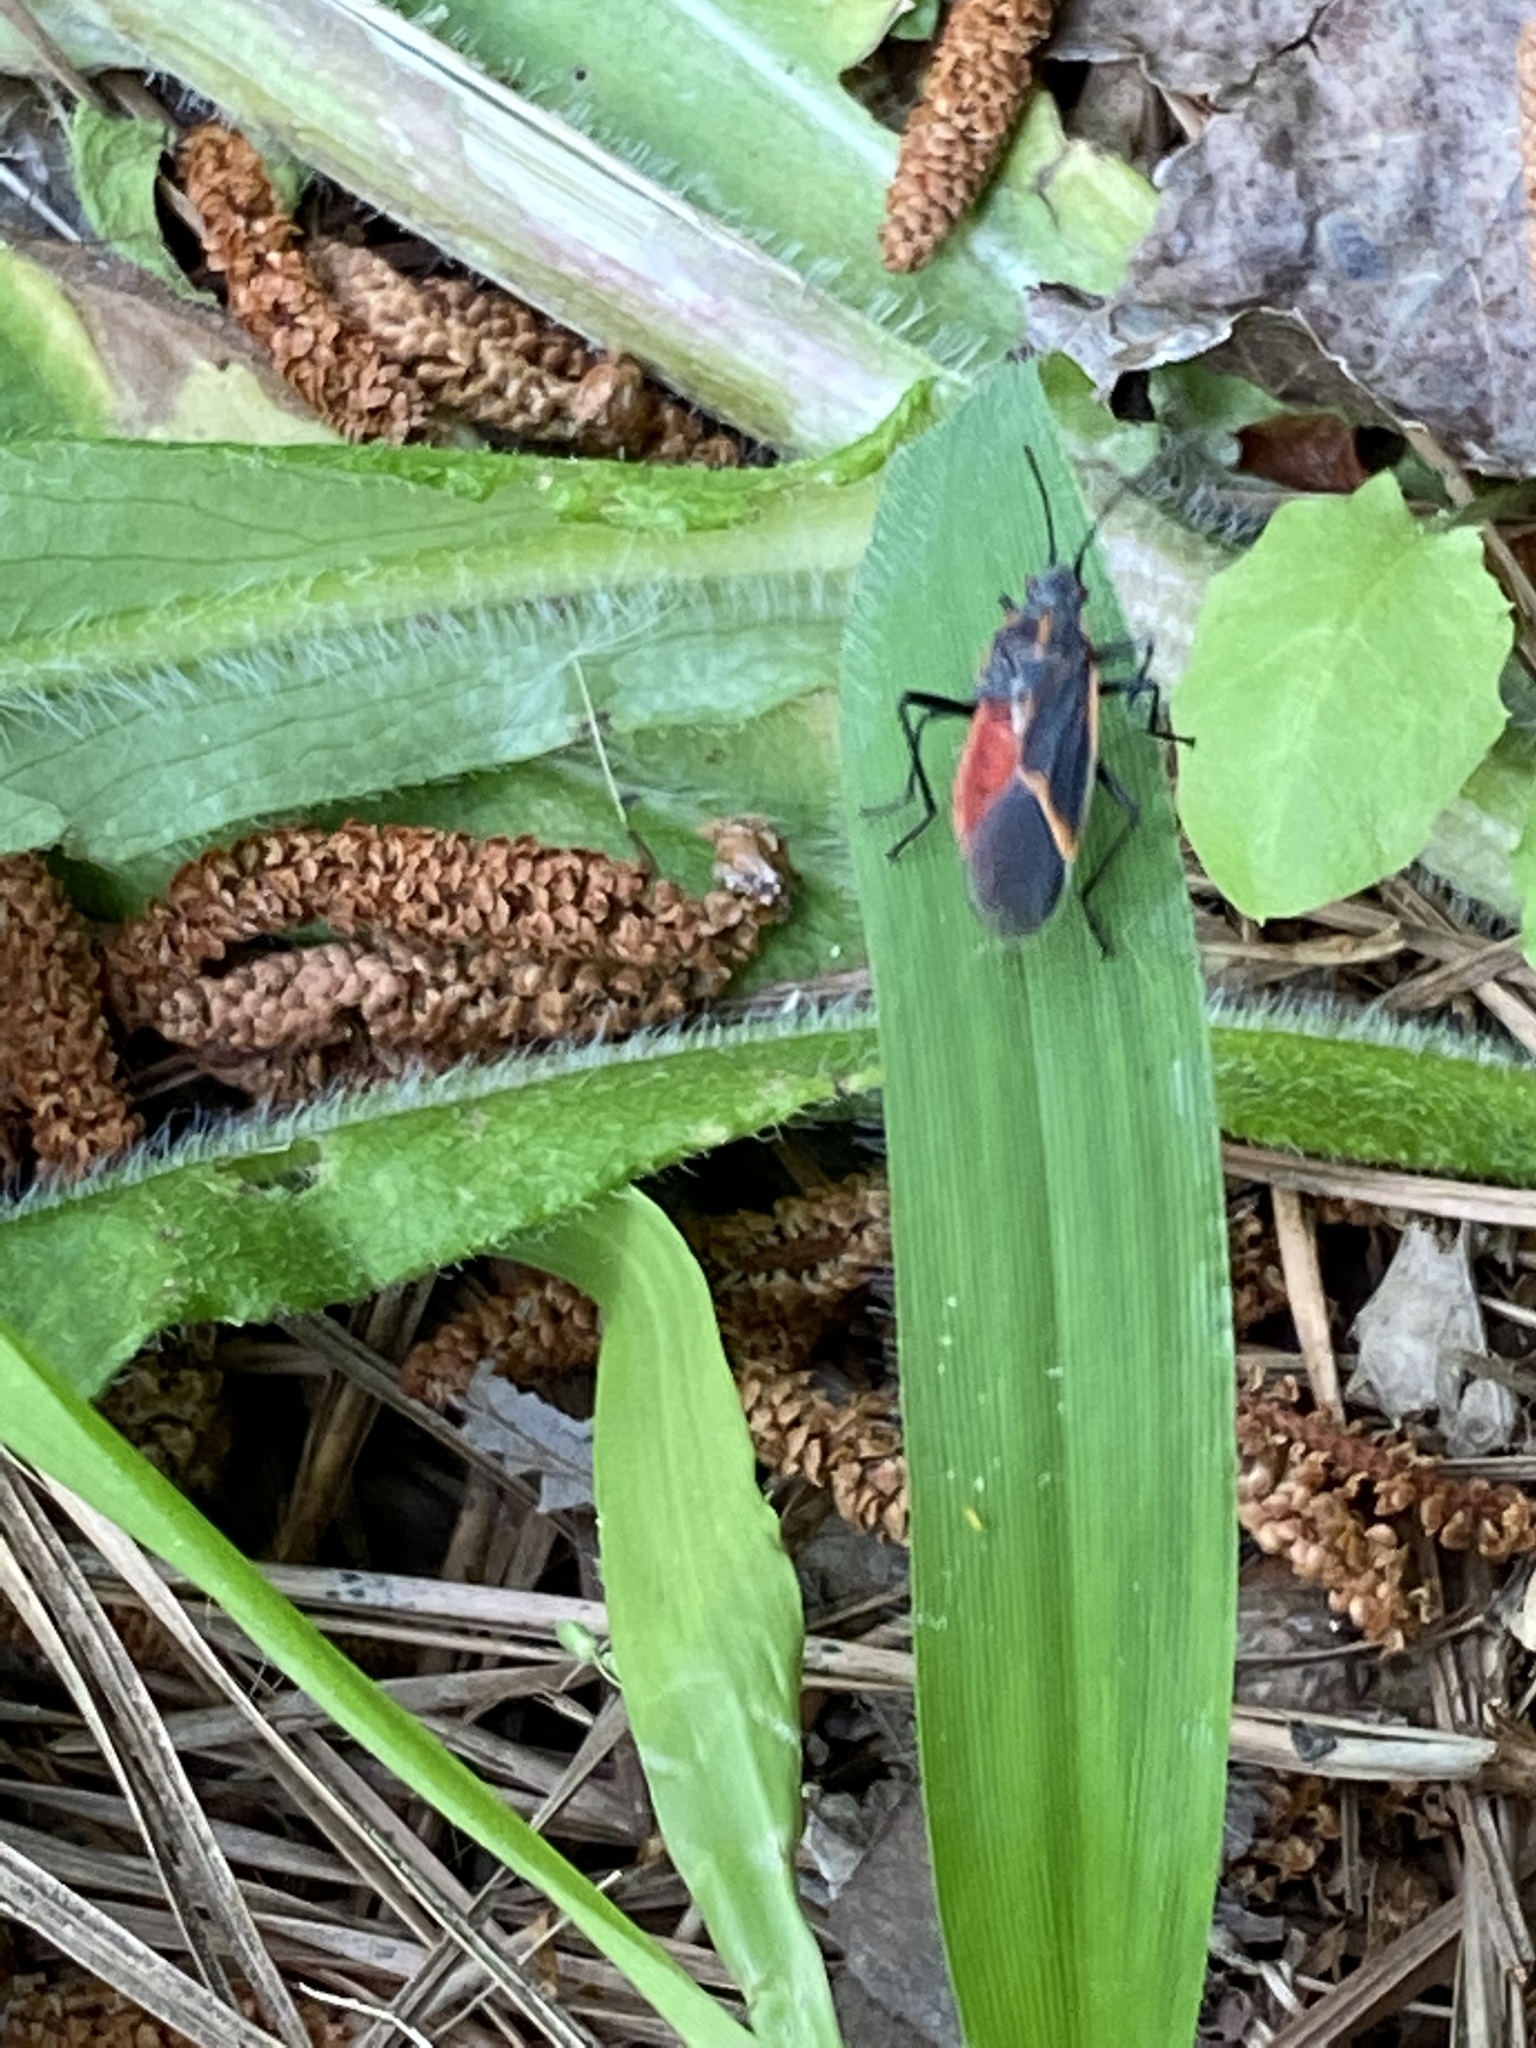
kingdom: Animalia
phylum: Arthropoda
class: Insecta
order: Hemiptera
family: Rhopalidae
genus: Boisea
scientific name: Boisea trivittata
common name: Boxelder bug
